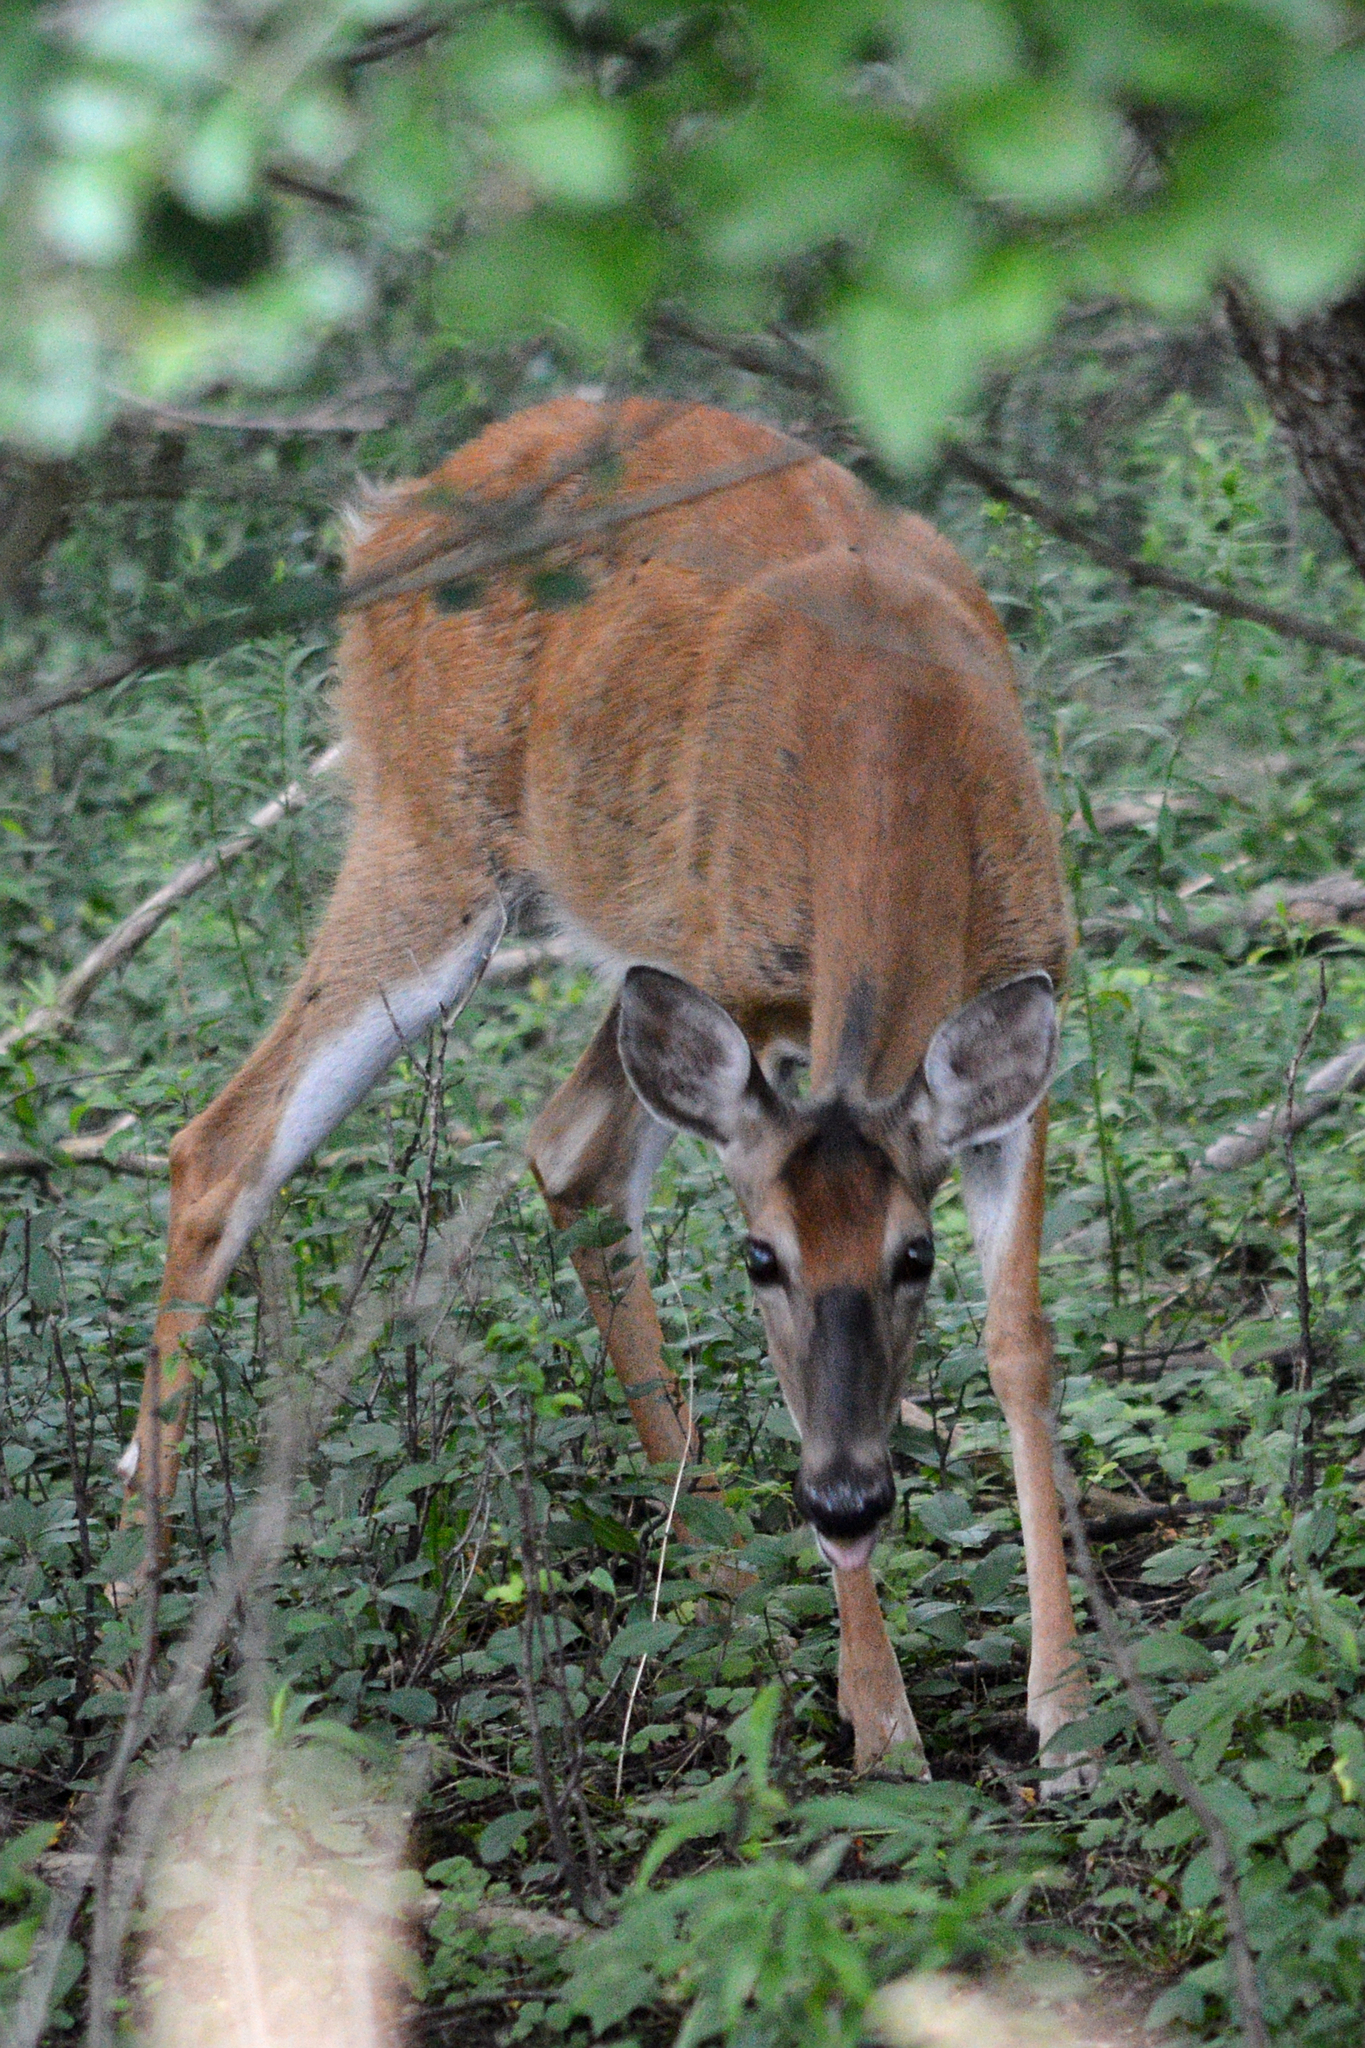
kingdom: Animalia
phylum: Chordata
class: Mammalia
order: Artiodactyla
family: Cervidae
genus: Odocoileus
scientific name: Odocoileus virginianus
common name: White-tailed deer
